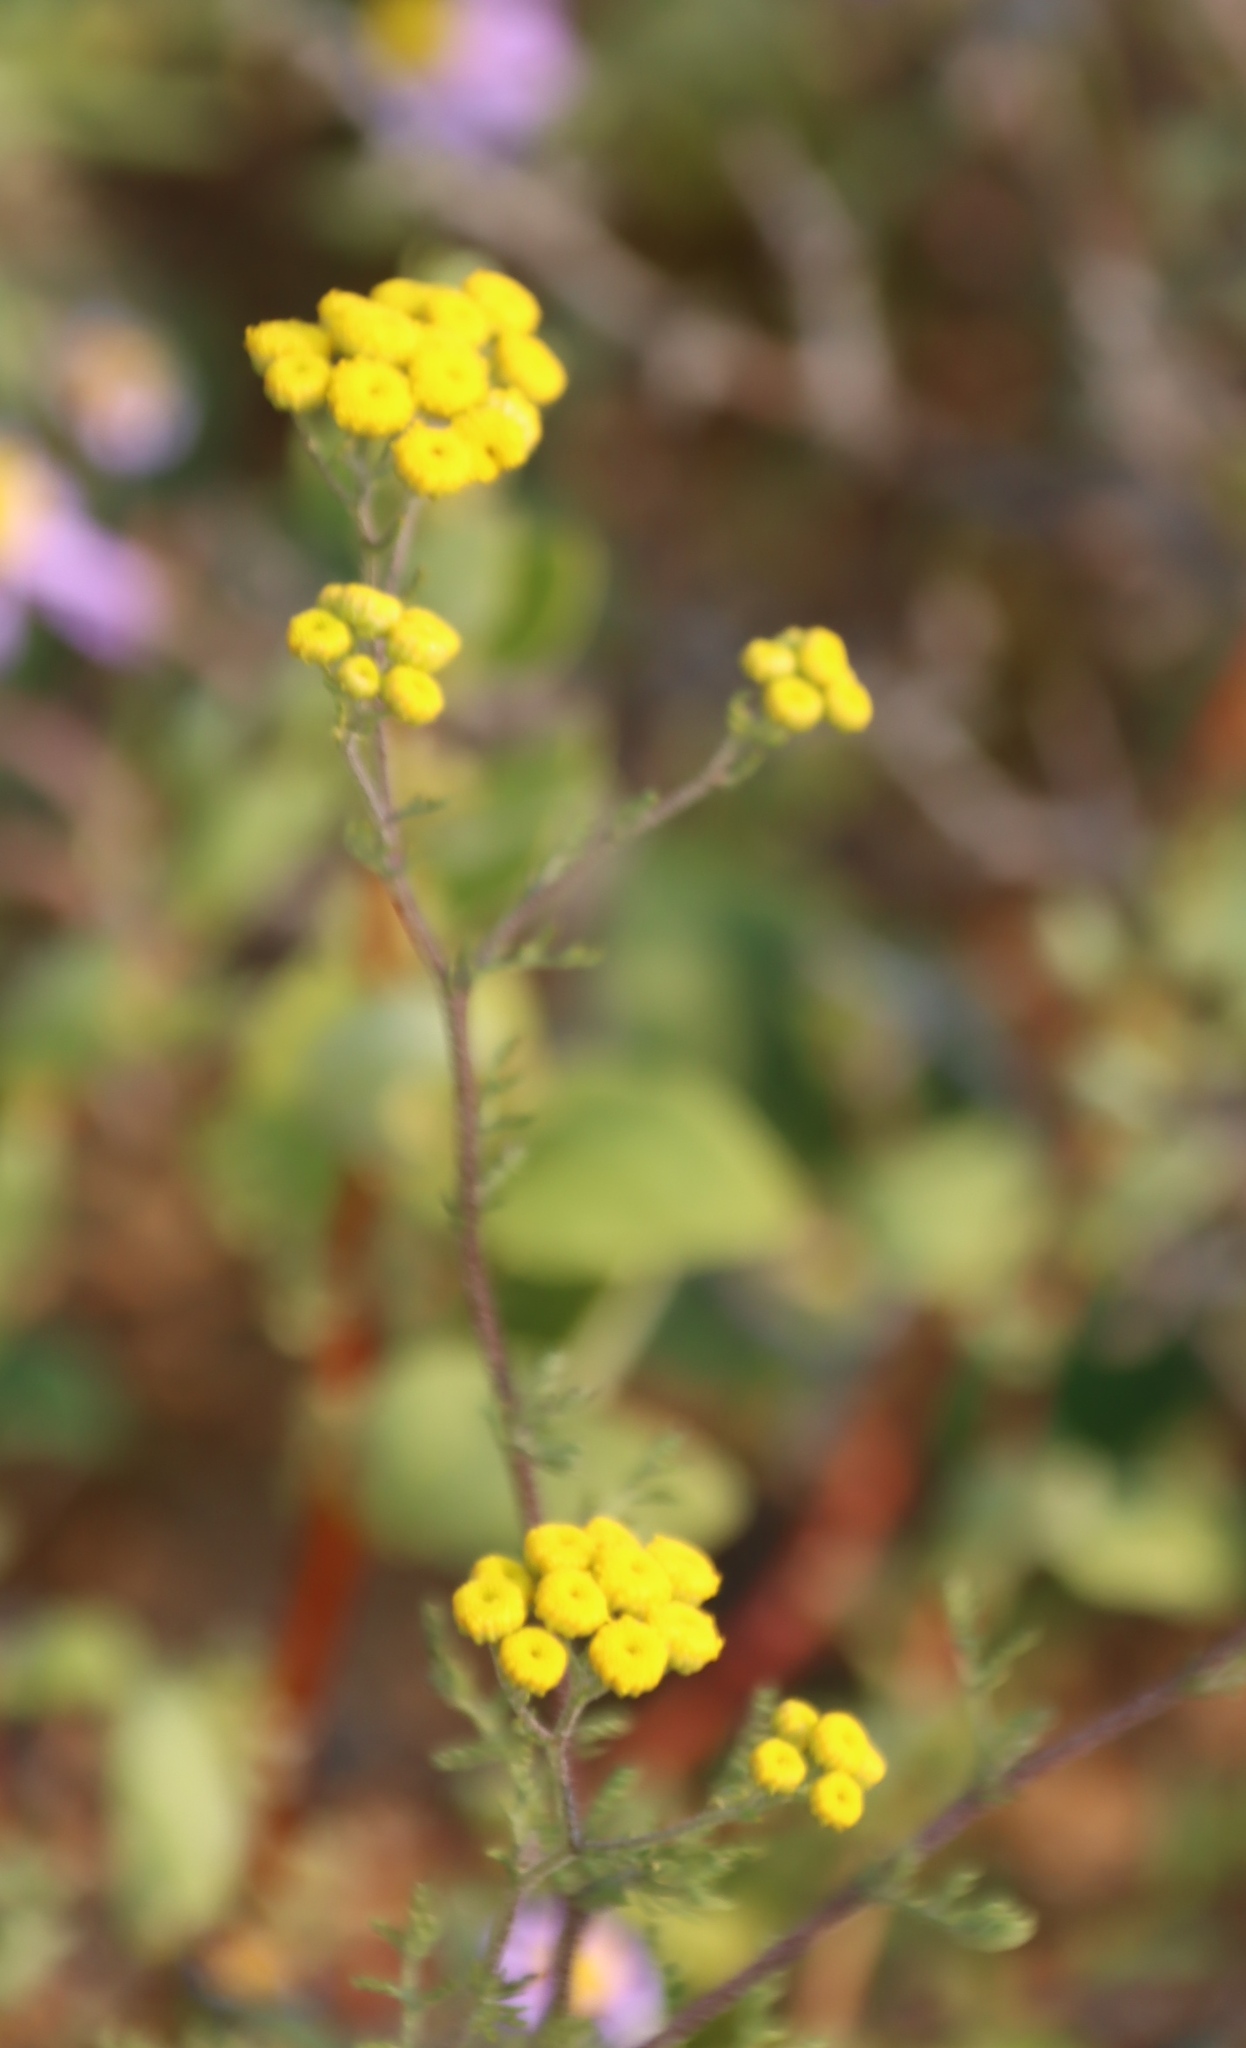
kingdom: Plantae
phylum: Tracheophyta
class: Magnoliopsida
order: Asterales
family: Asteraceae
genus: Oncosiphon
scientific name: Oncosiphon suffruticosus
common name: Shrubby mayweed
